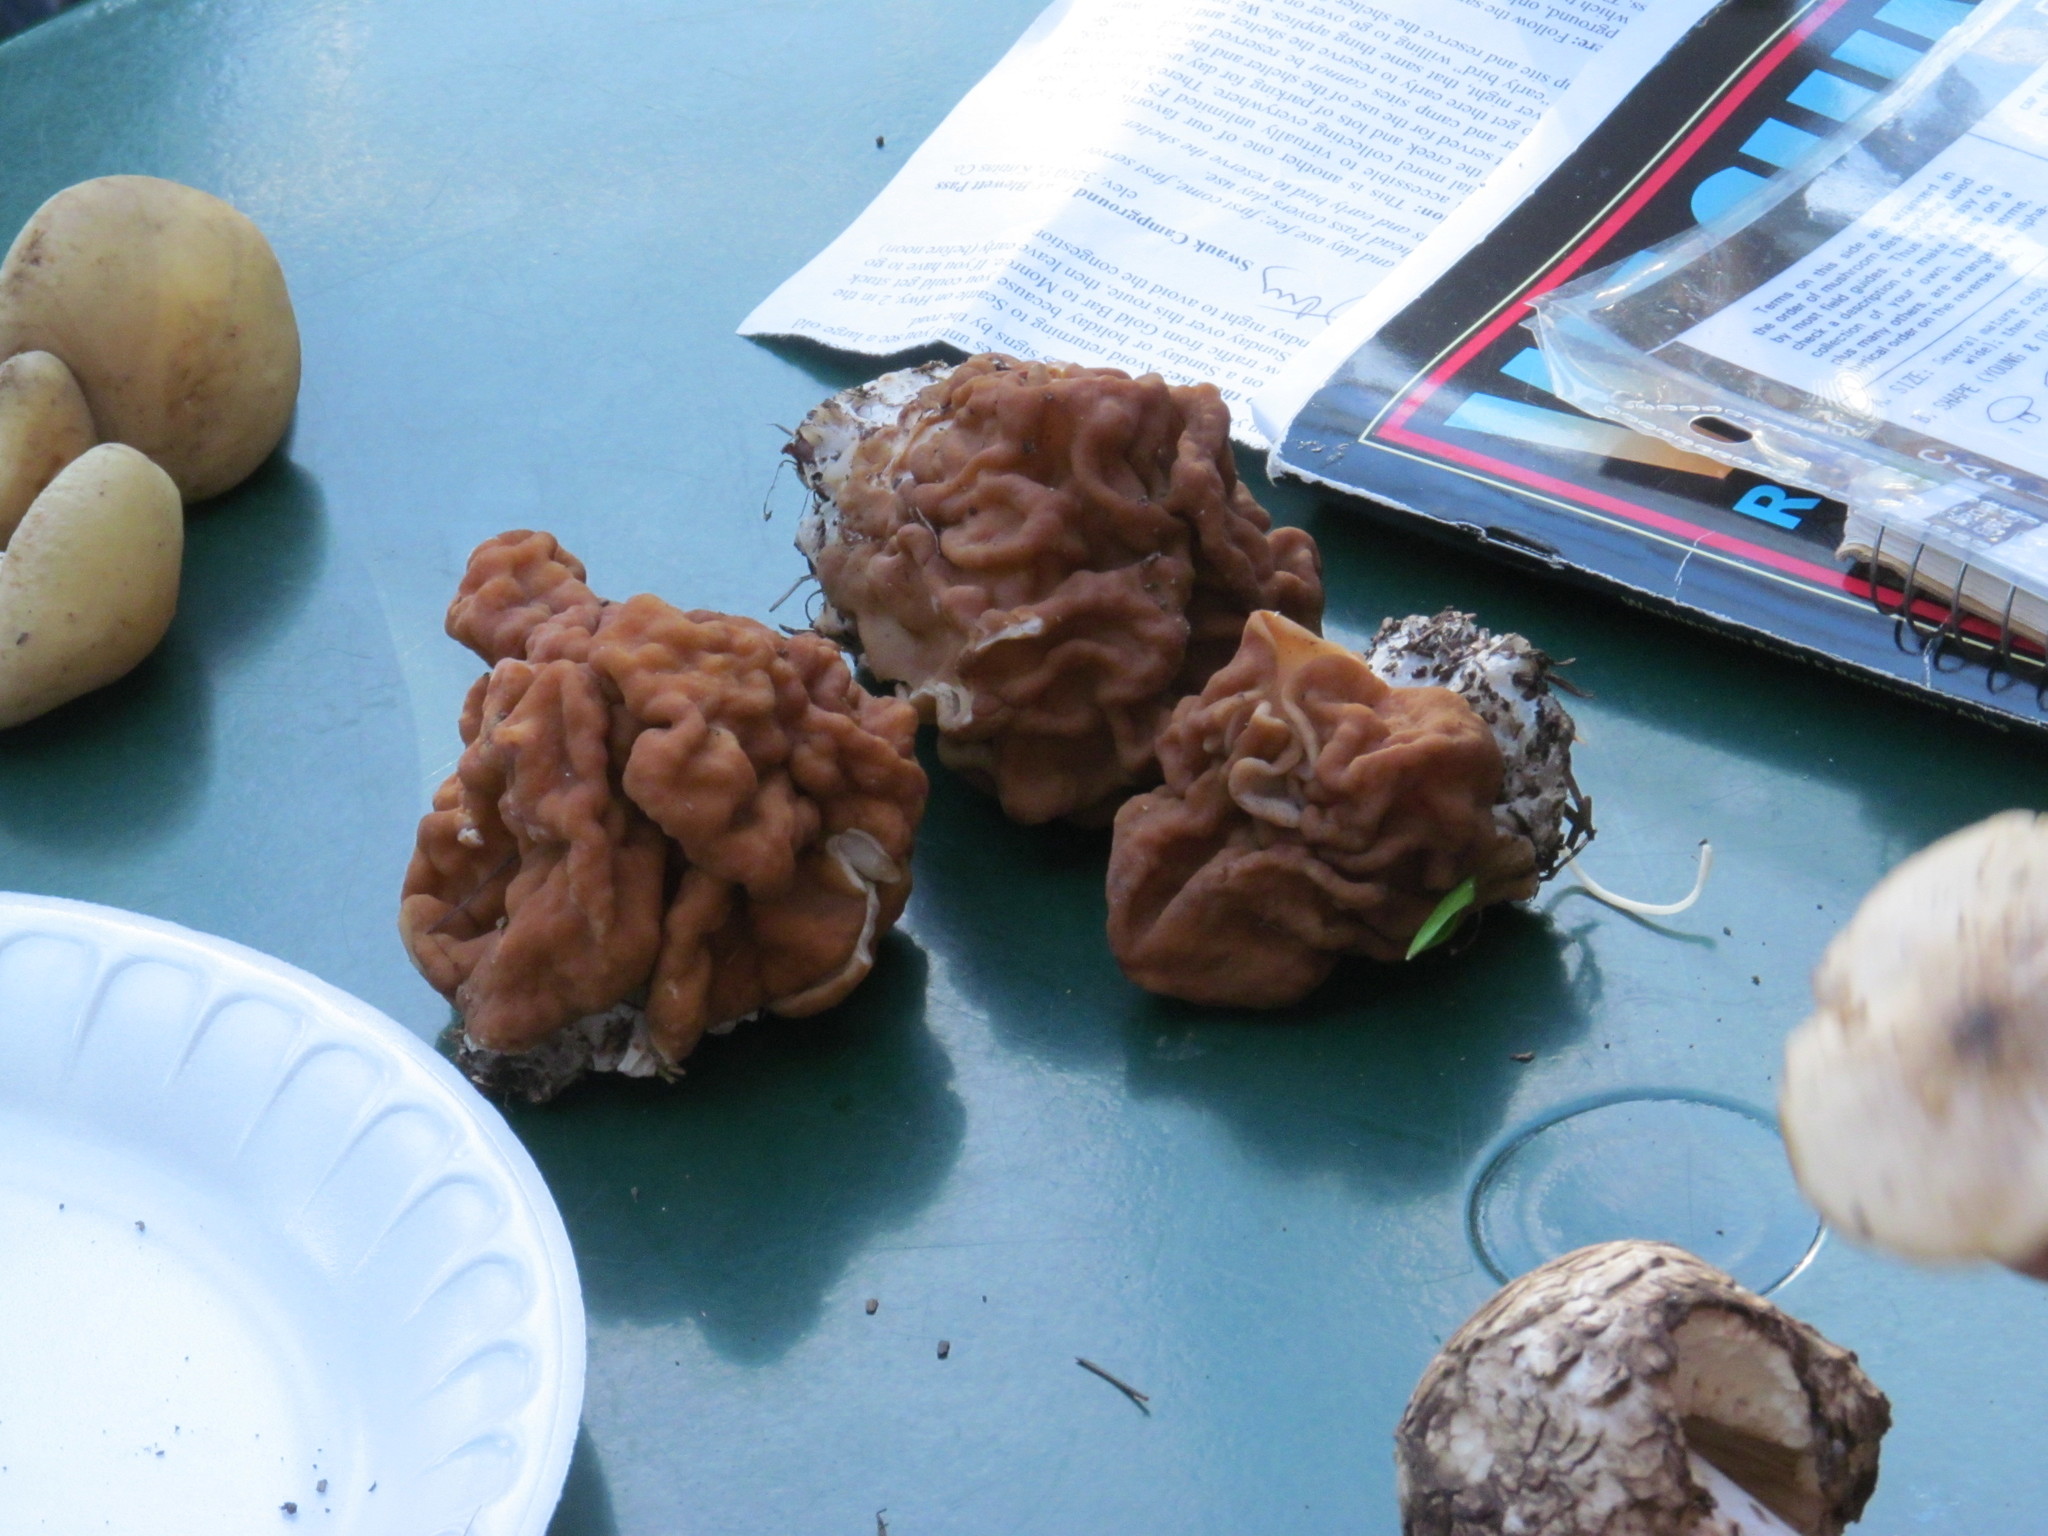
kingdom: Fungi
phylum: Ascomycota
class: Pezizomycetes
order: Pezizales
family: Discinaceae
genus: Discina
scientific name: Discina montana
